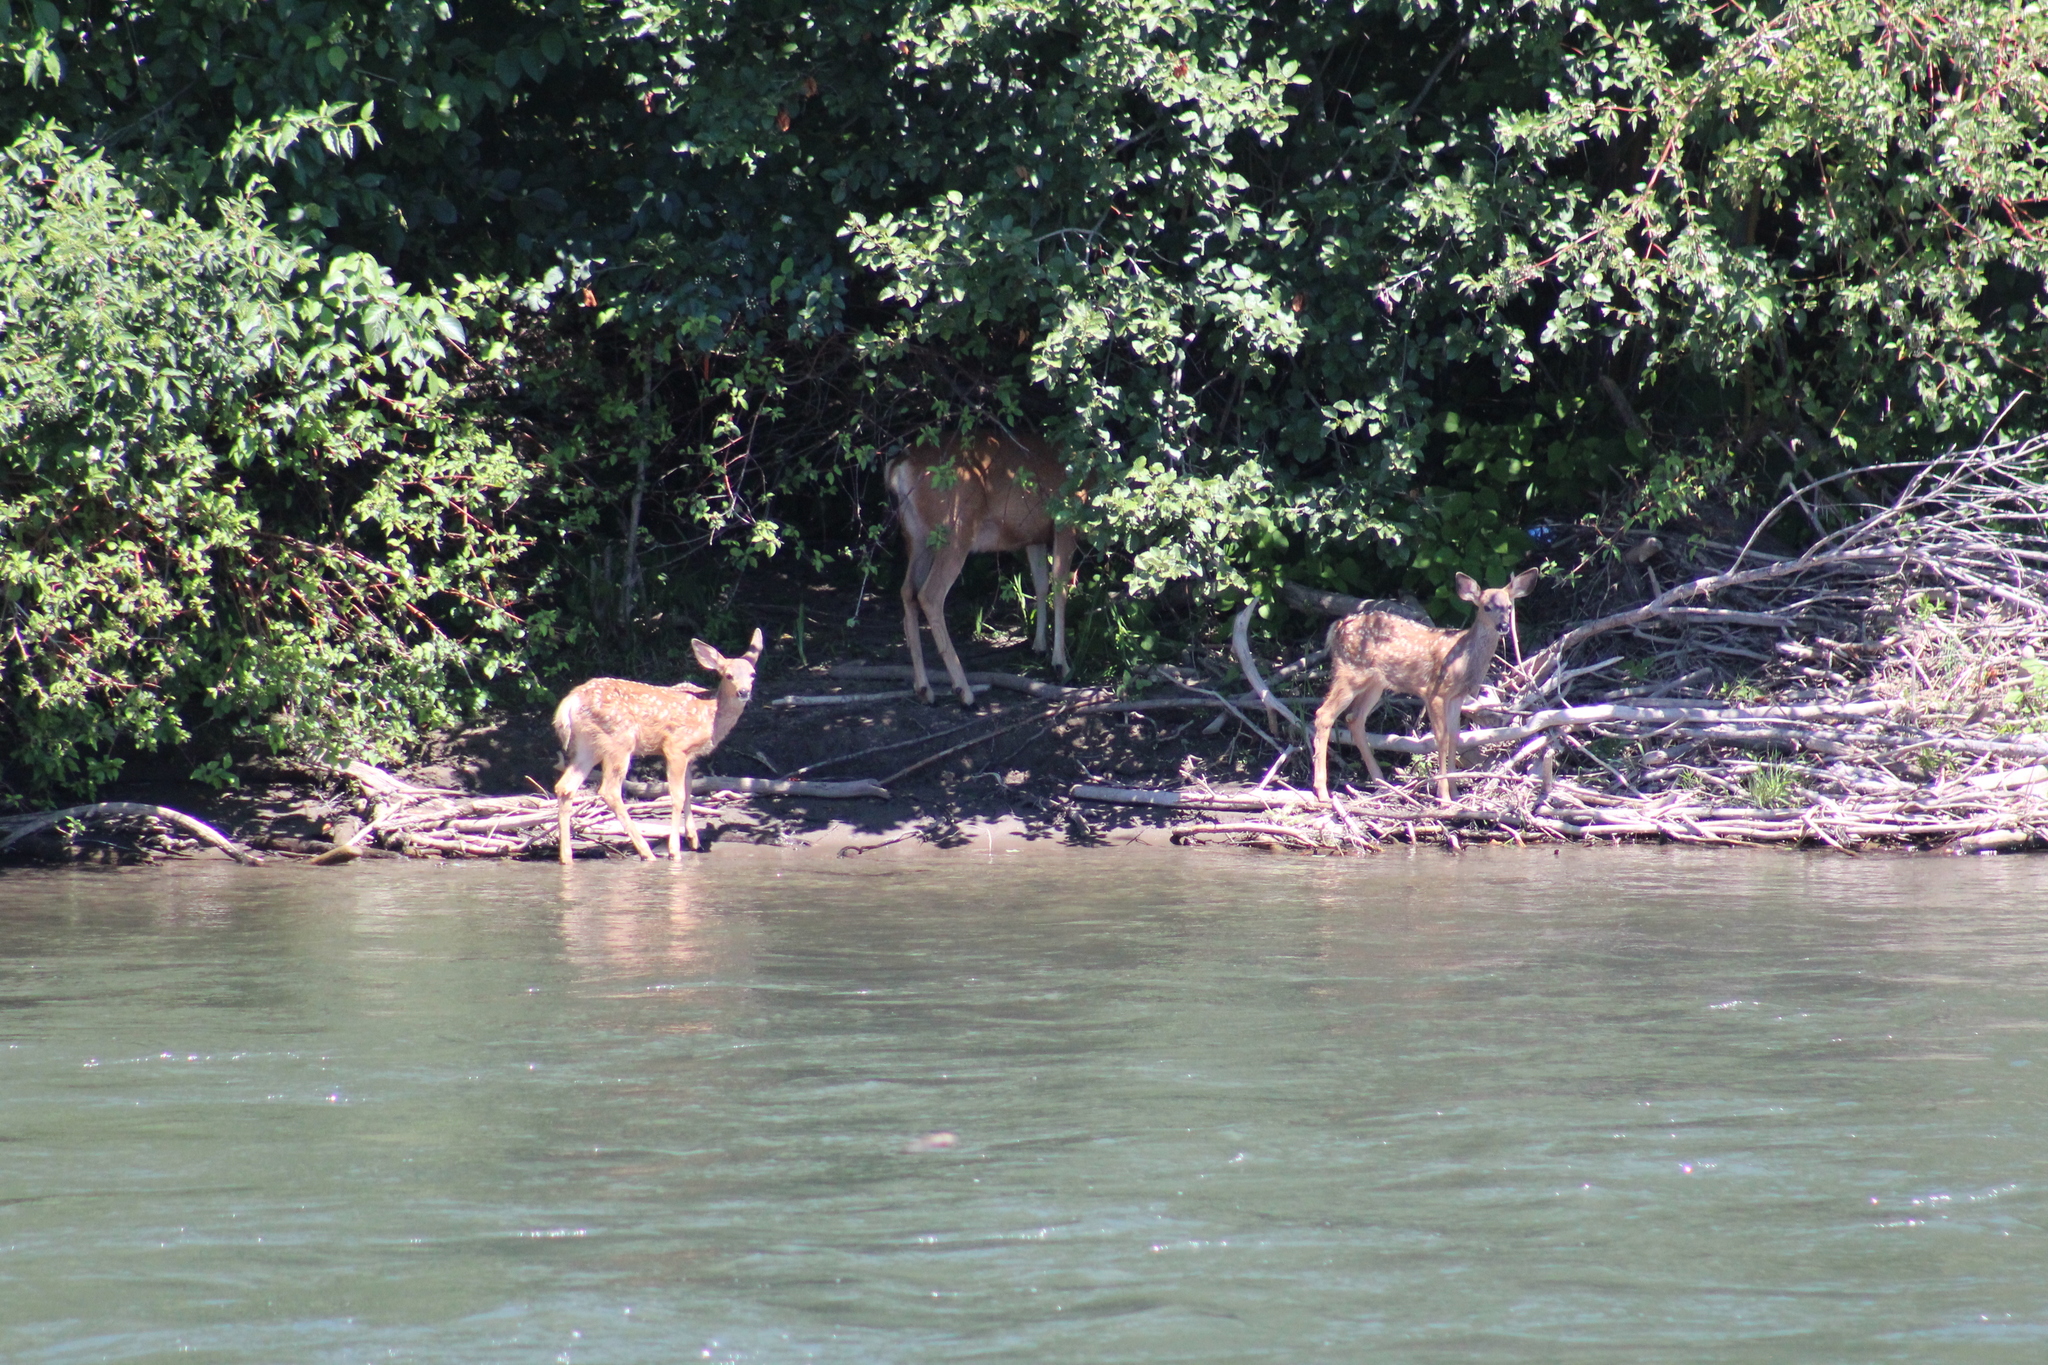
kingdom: Animalia
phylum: Chordata
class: Mammalia
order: Artiodactyla
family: Cervidae
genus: Odocoileus
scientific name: Odocoileus hemionus
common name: Mule deer
